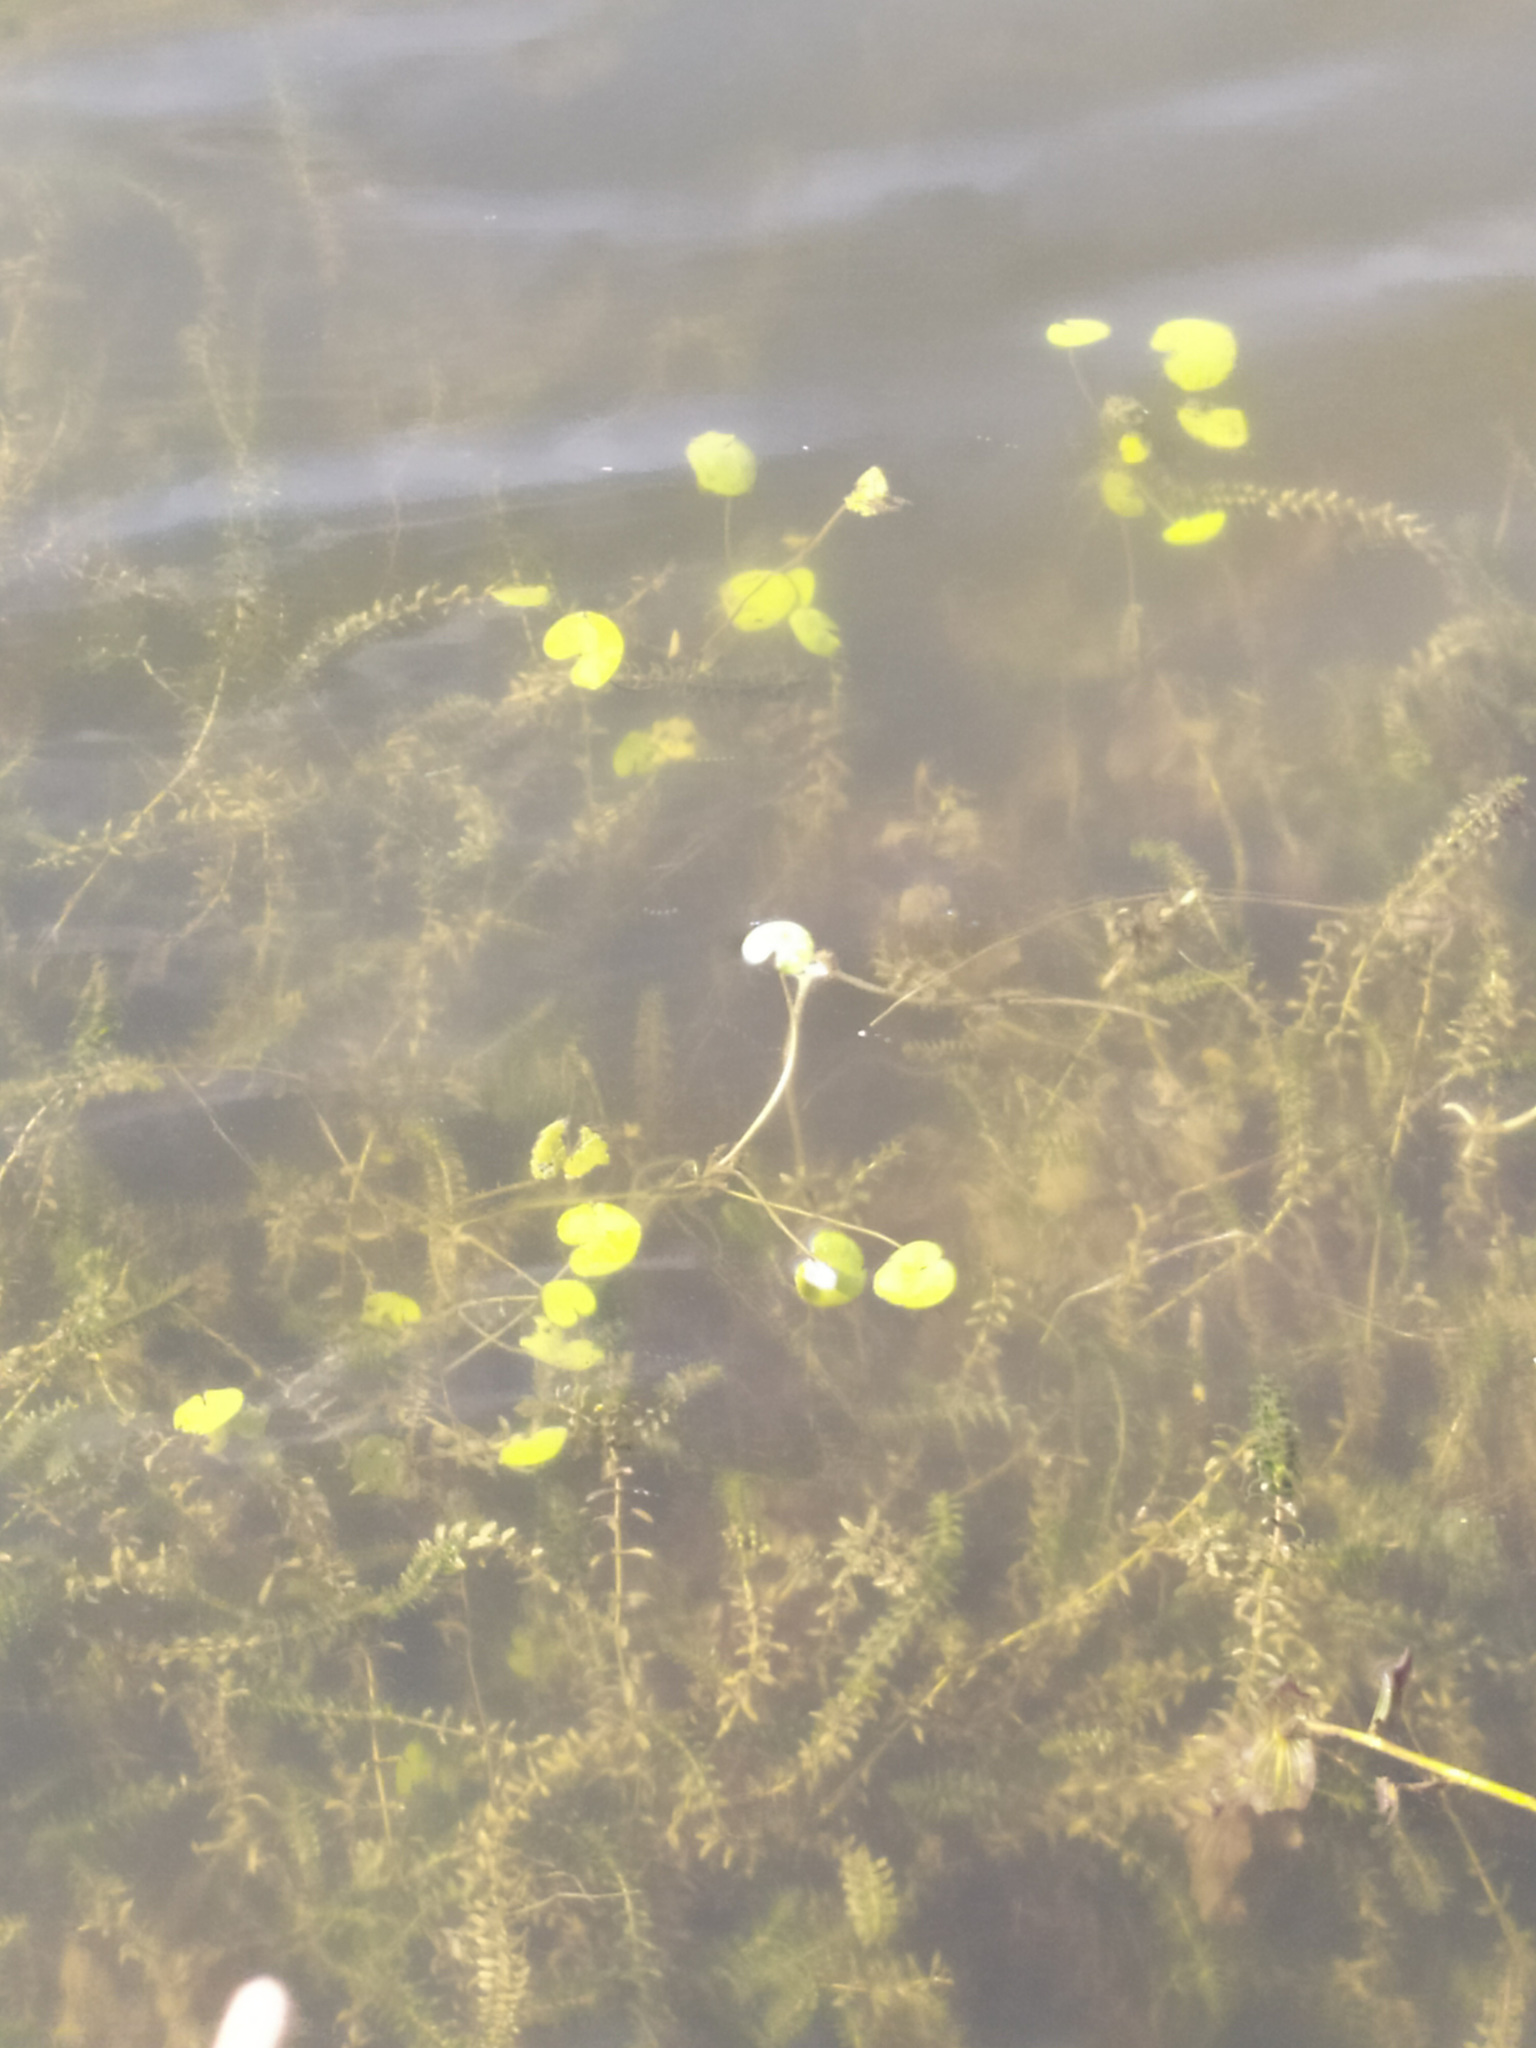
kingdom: Plantae
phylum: Tracheophyta
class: Liliopsida
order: Alismatales
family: Hydrocharitaceae
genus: Elodea
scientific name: Elodea canadensis
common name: Canadian waterweed
